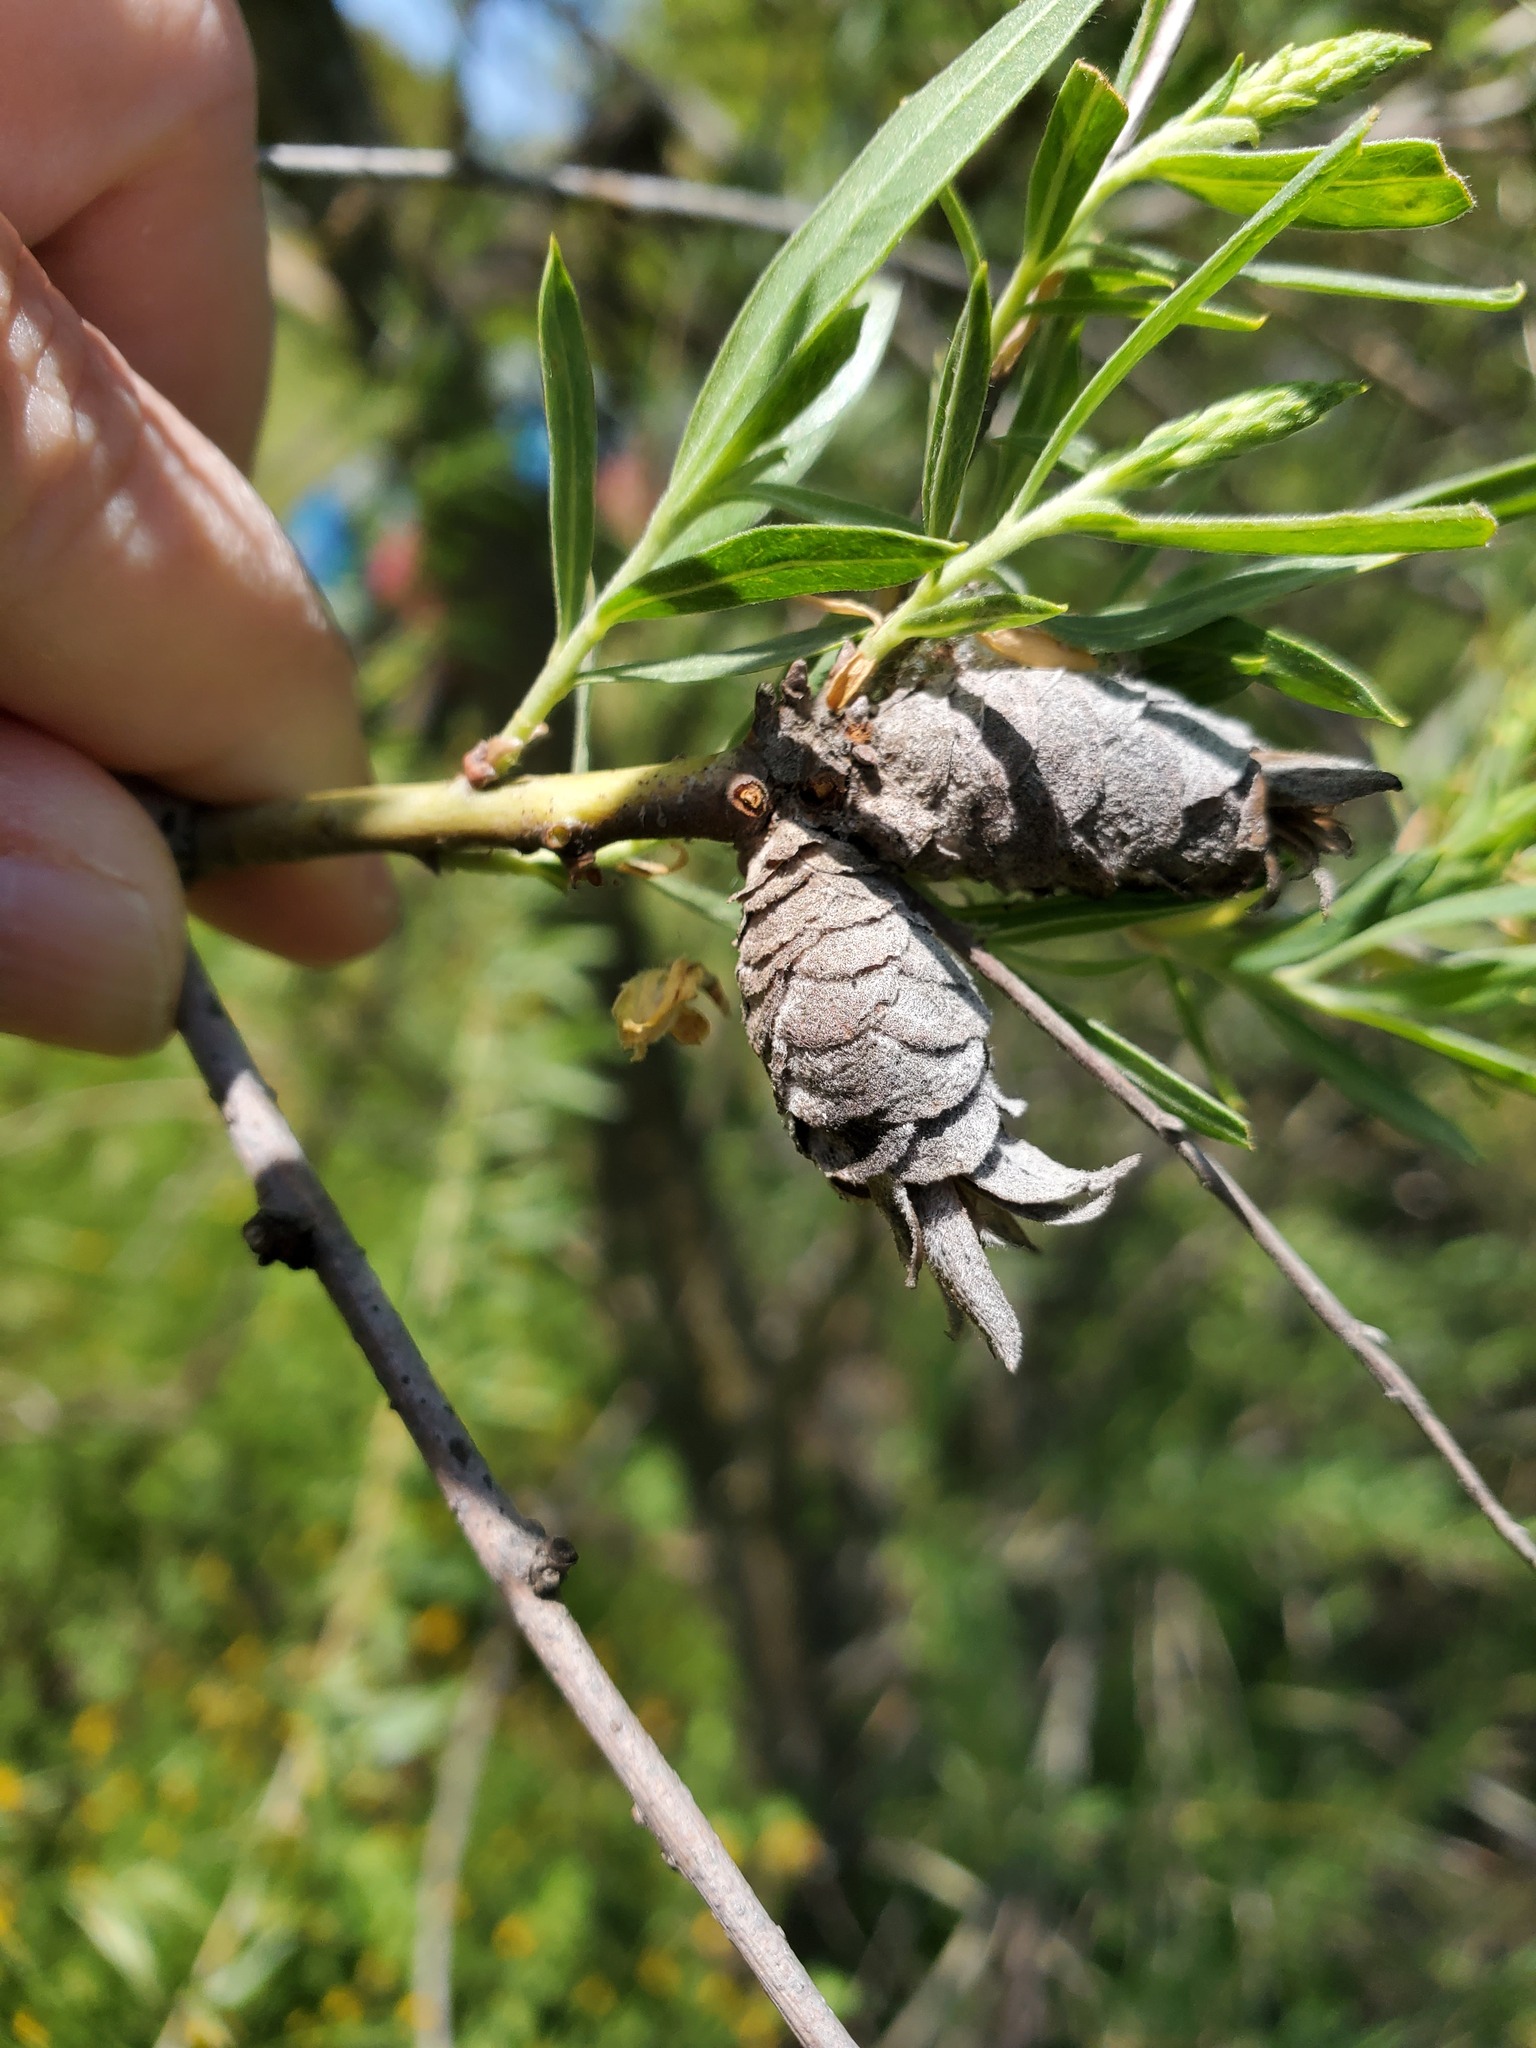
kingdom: Animalia
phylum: Arthropoda
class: Insecta
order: Diptera
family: Cecidomyiidae
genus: Rabdophaga
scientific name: Rabdophaga strobiloides
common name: Willow pinecone gall midge
